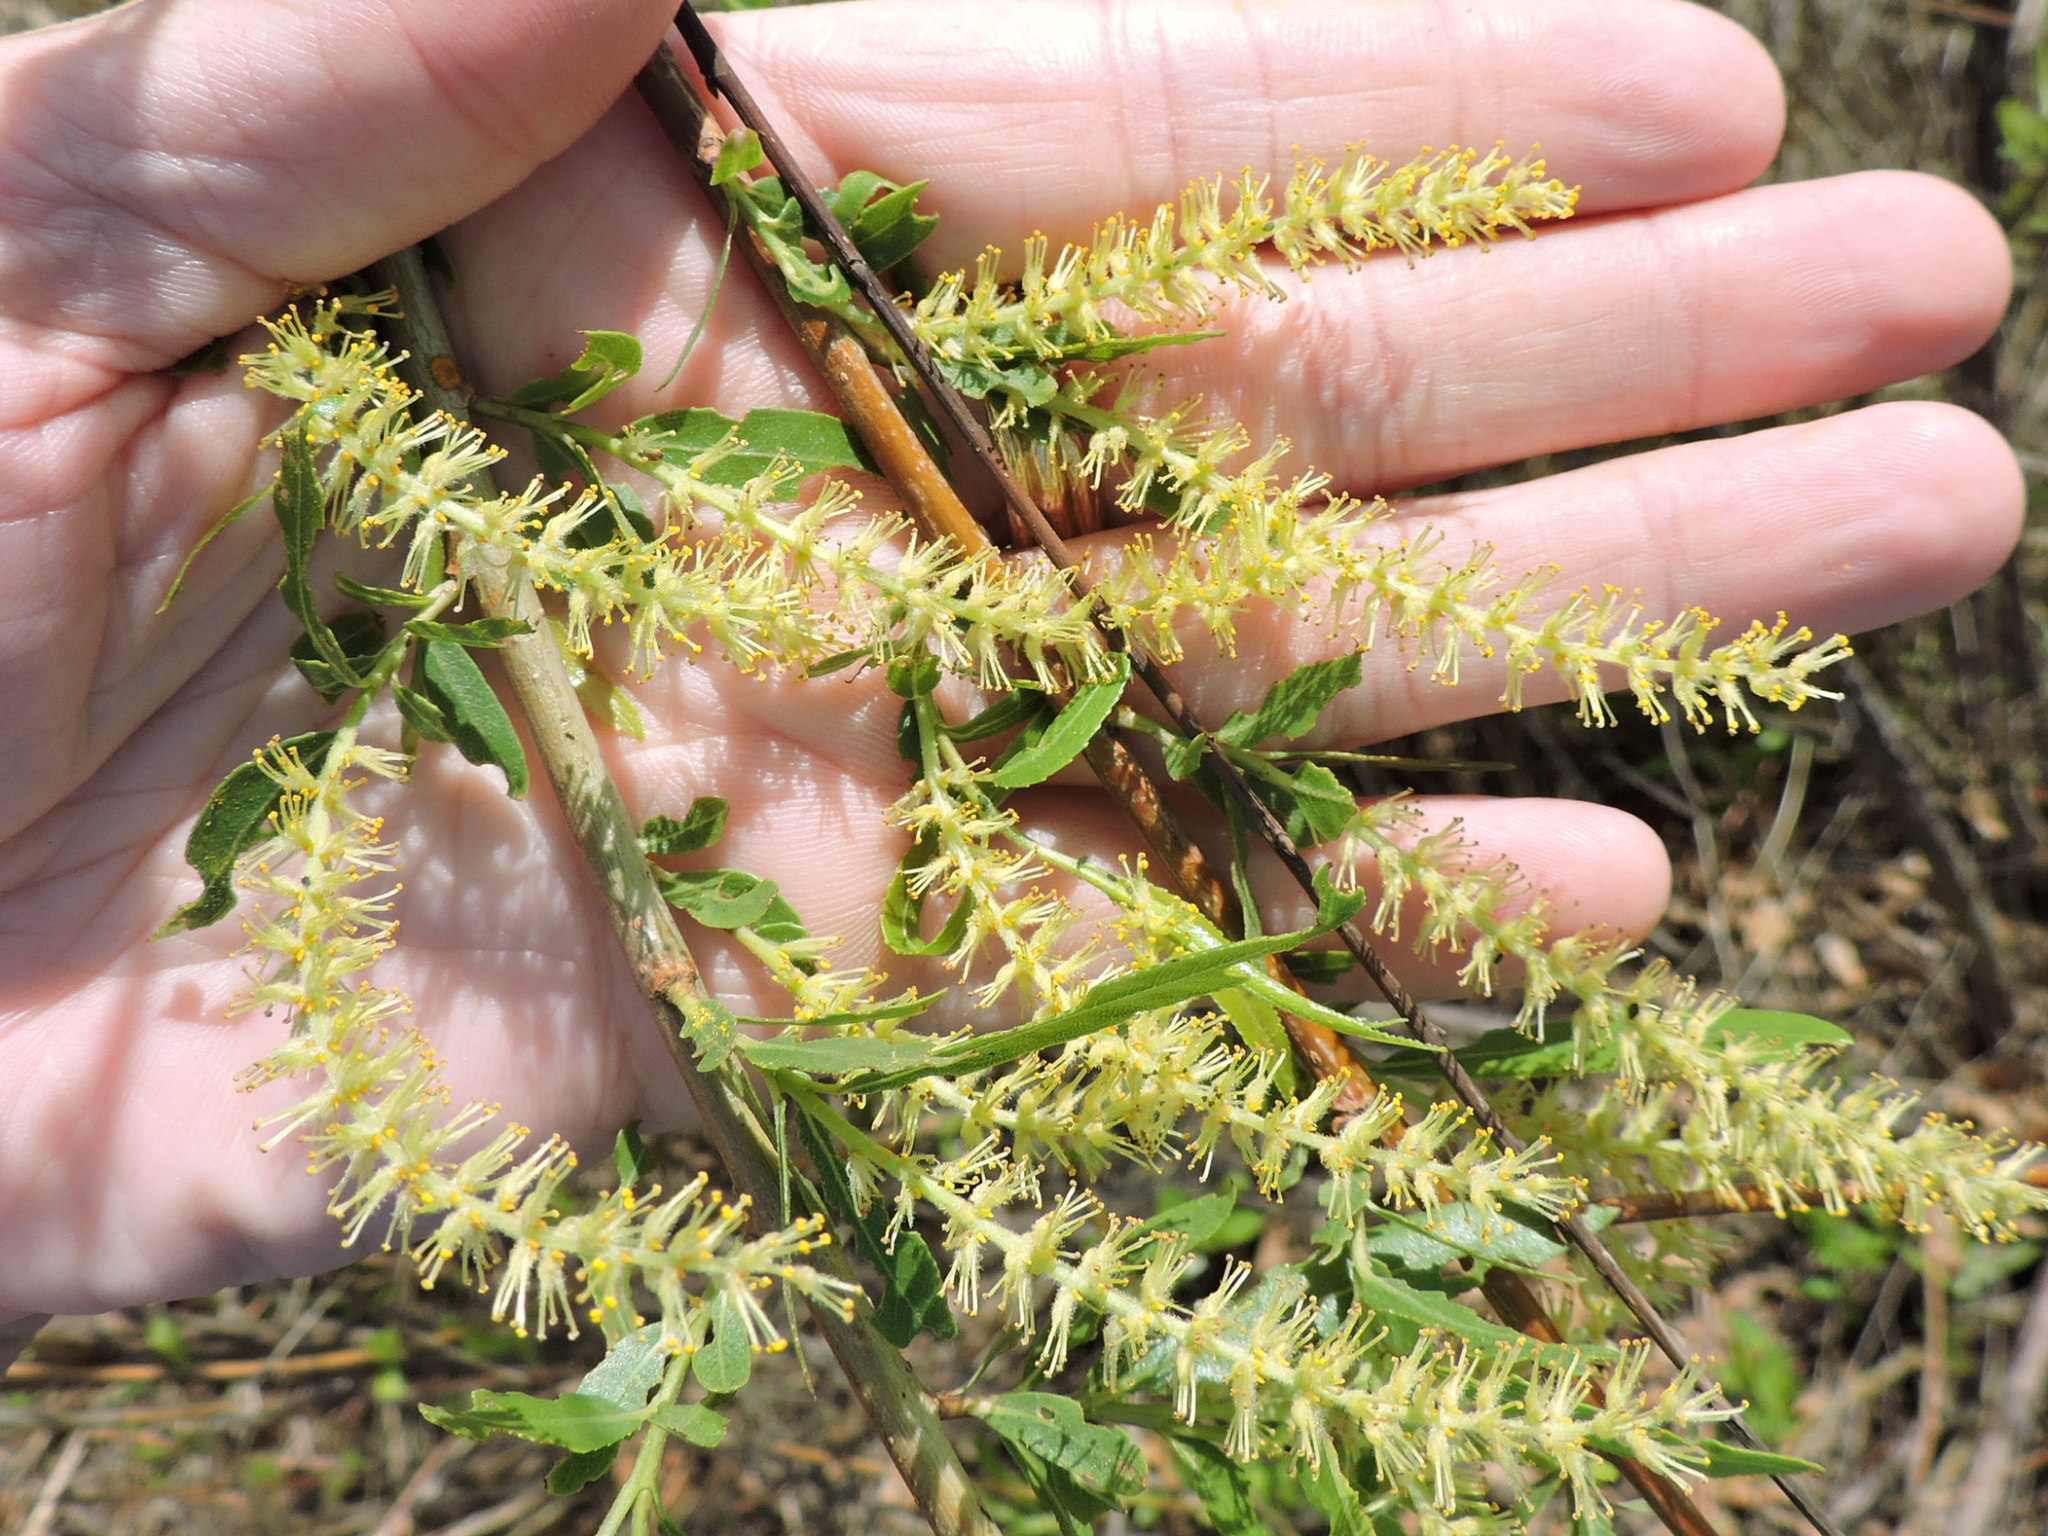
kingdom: Plantae
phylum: Tracheophyta
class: Magnoliopsida
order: Malpighiales
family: Salicaceae
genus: Salix
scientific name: Salix nigra
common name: Black willow
